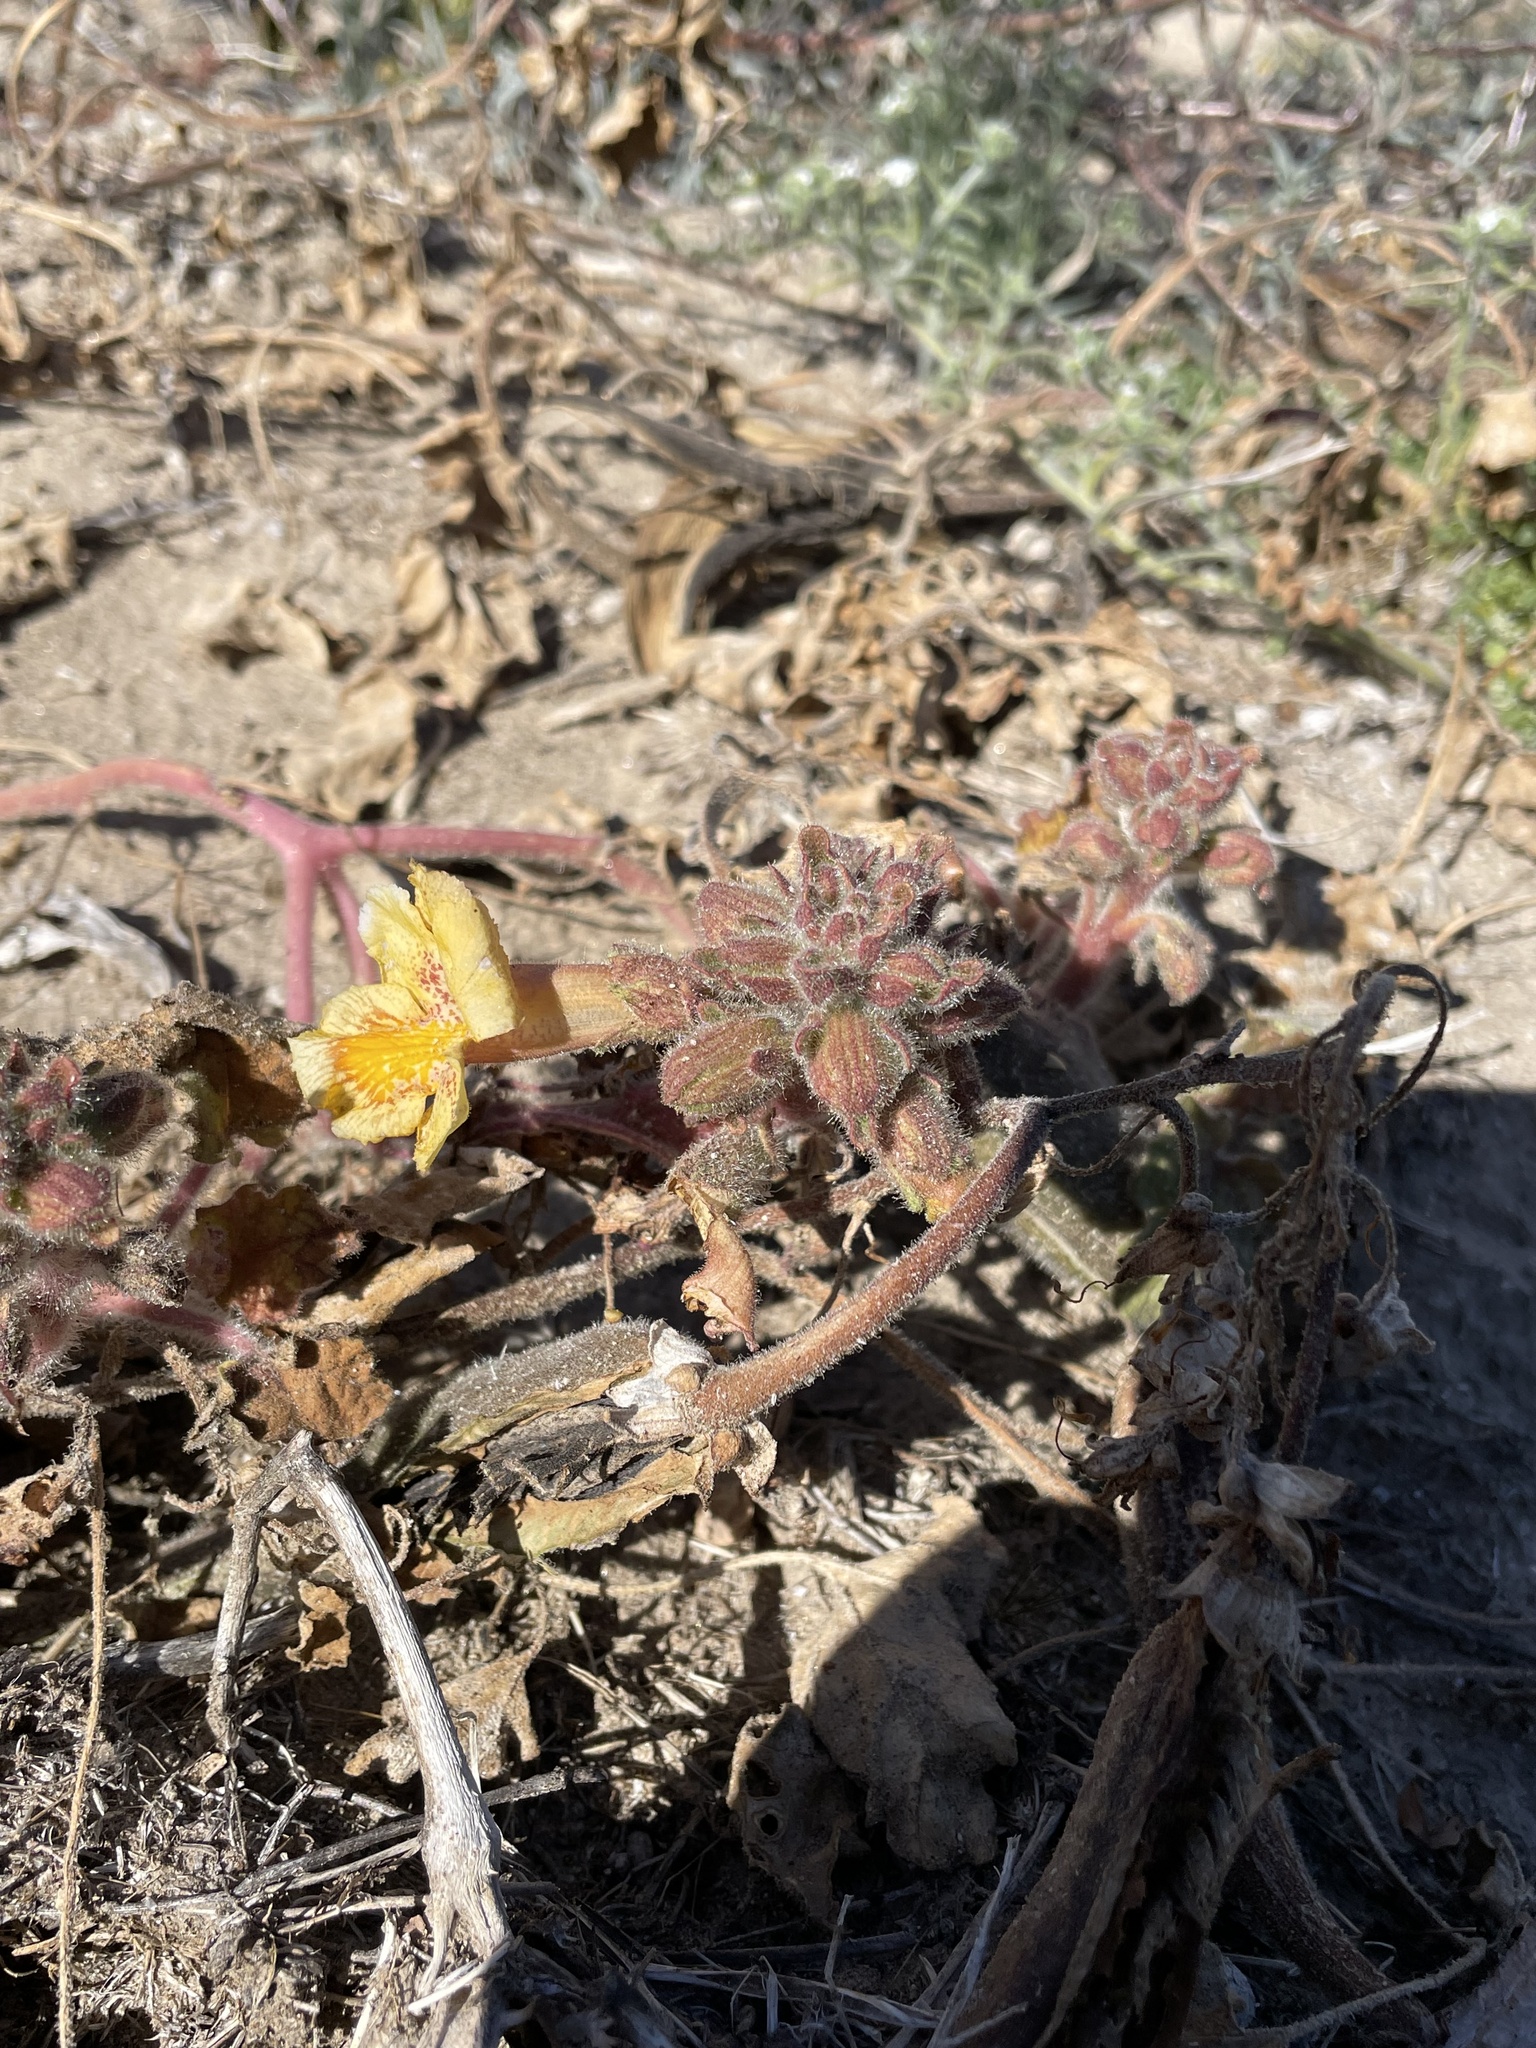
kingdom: Plantae
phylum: Tracheophyta
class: Magnoliopsida
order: Lamiales
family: Martyniaceae
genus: Proboscidea
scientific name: Proboscidea althaeifolia
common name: Desert unicorn-plant
